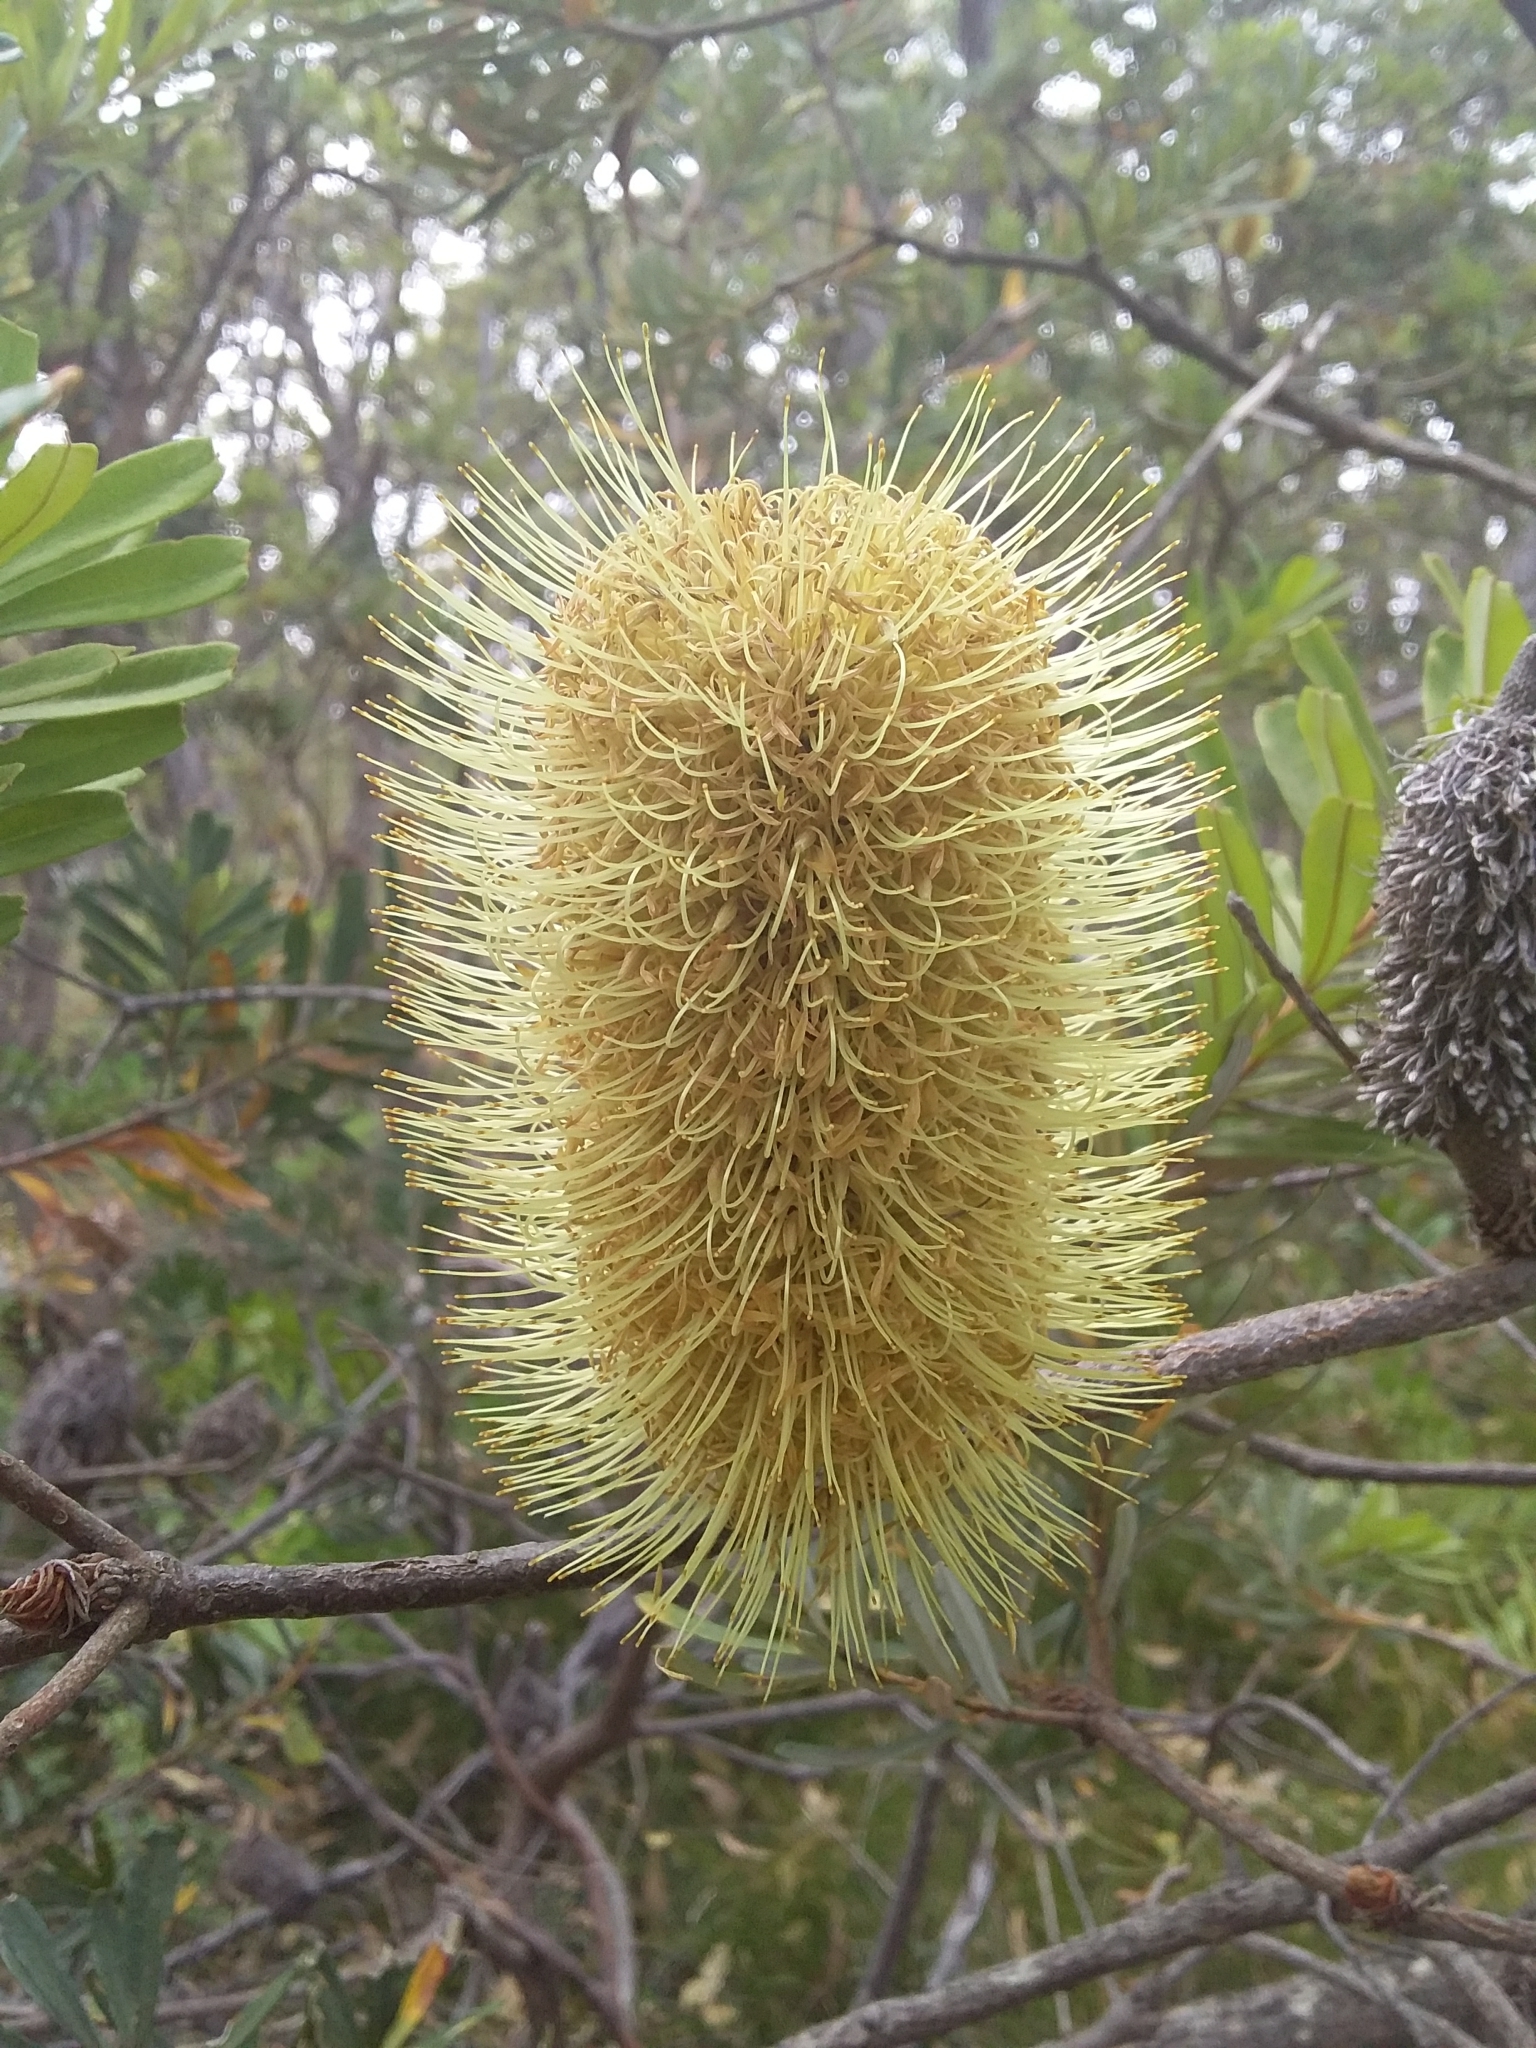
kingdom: Plantae
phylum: Tracheophyta
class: Magnoliopsida
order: Proteales
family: Proteaceae
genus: Banksia
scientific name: Banksia marginata
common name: Silver banksia
